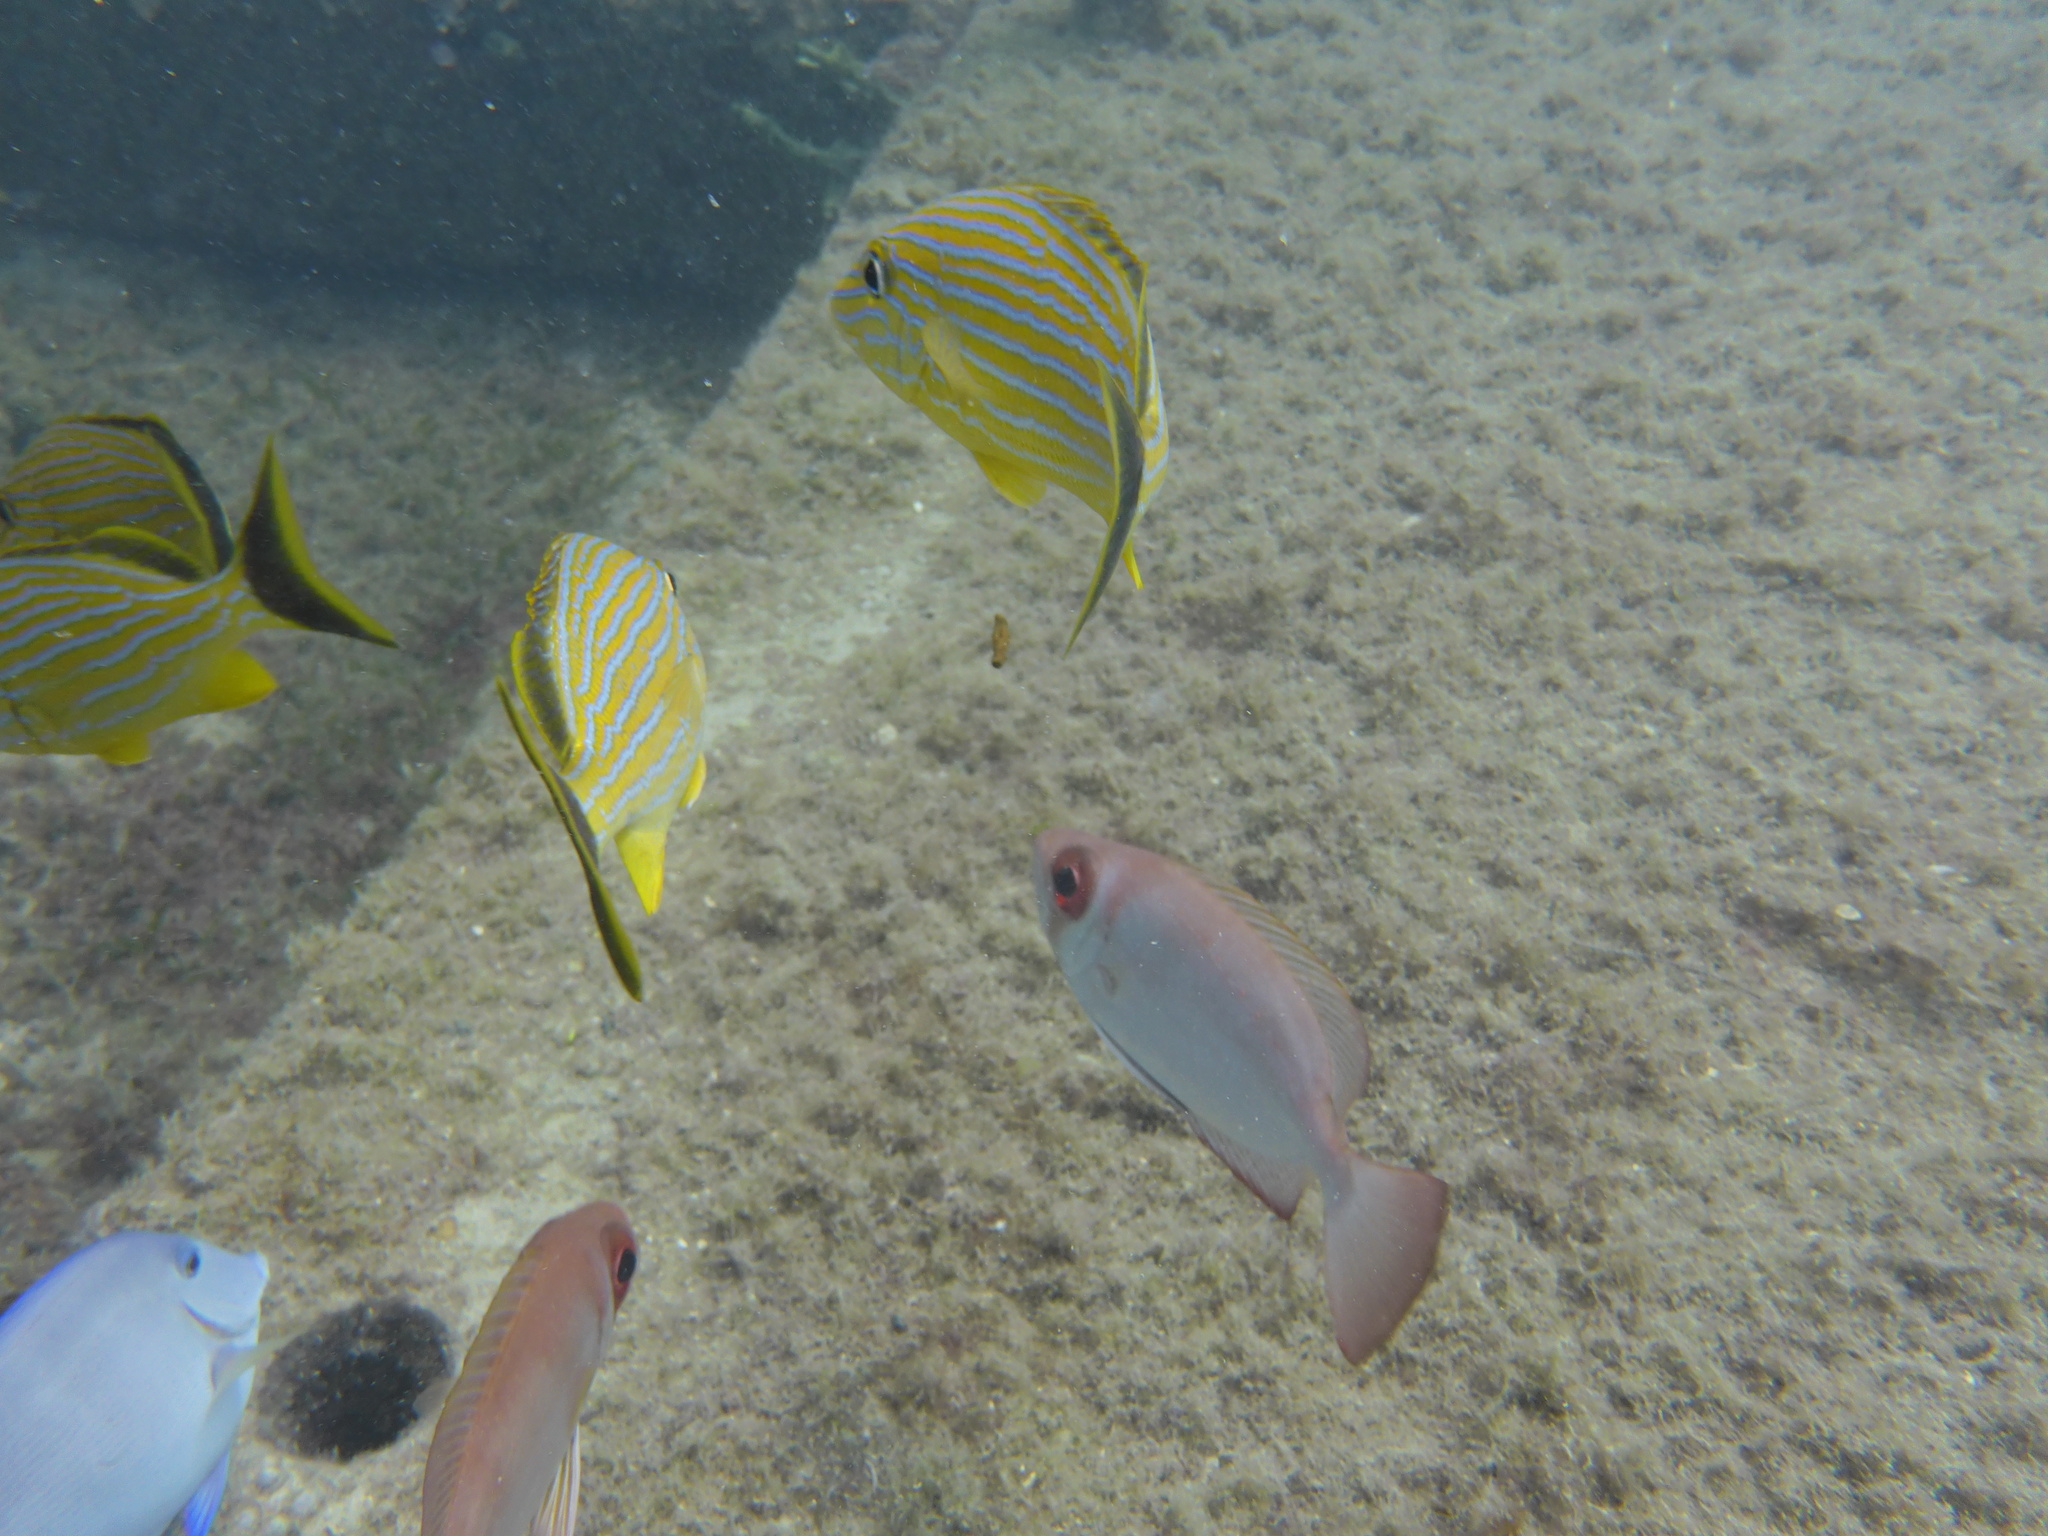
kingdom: Animalia
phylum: Chordata
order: Perciformes
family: Haemulidae
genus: Haemulon
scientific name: Haemulon sciurus
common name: Bluestriped grunt
